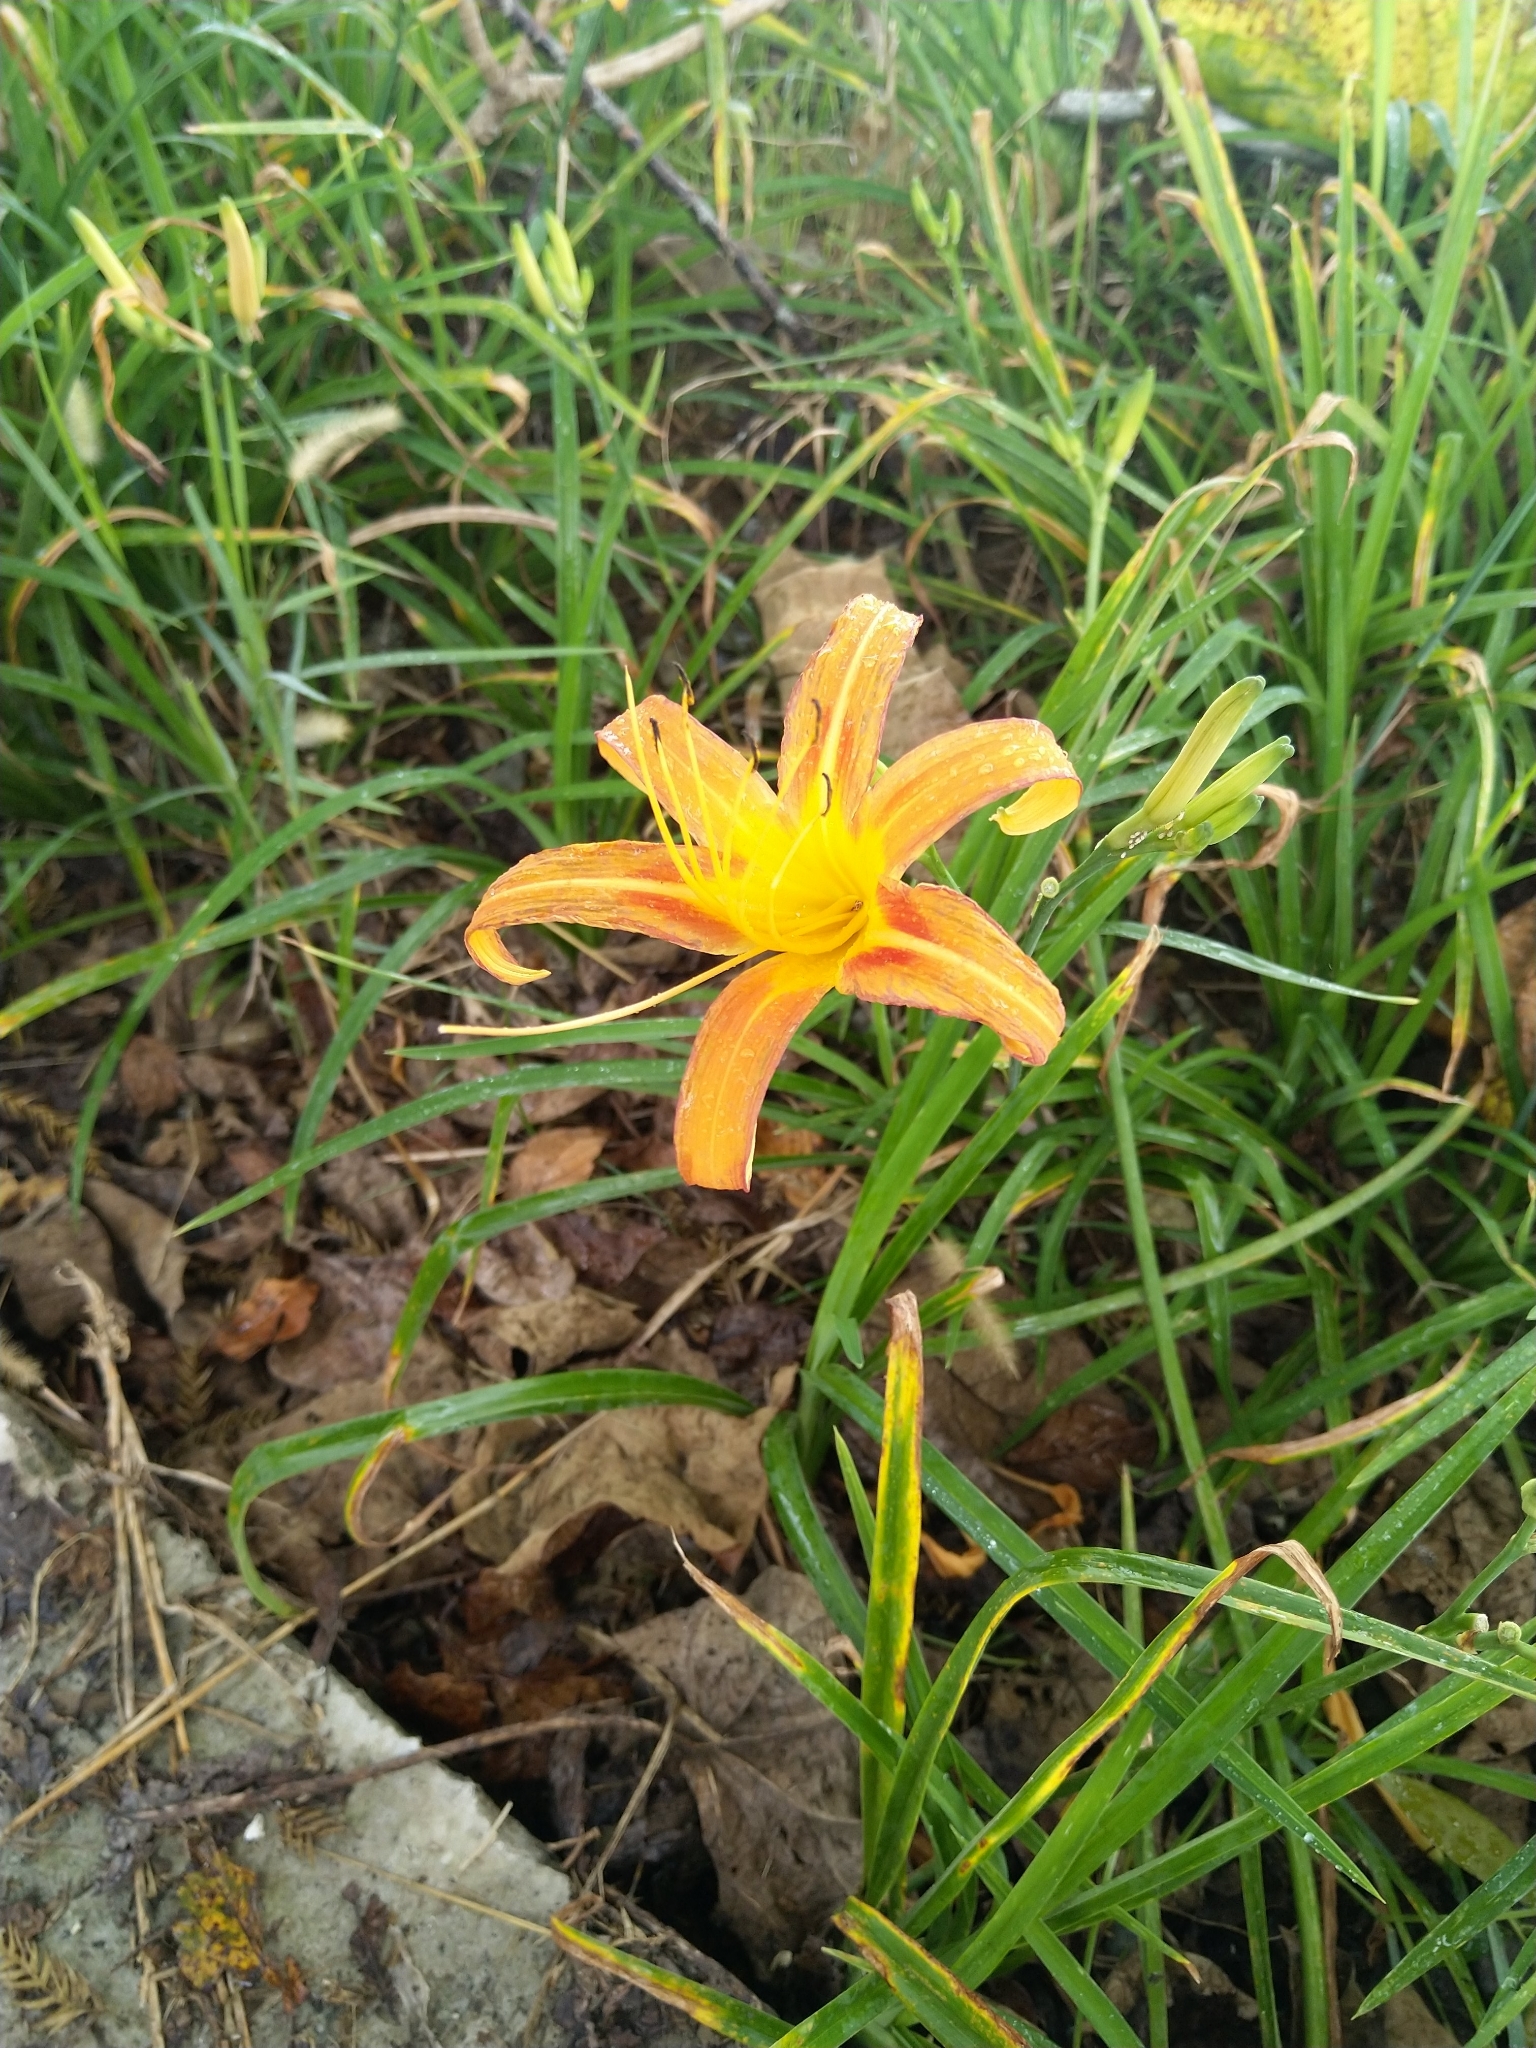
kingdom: Plantae
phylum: Tracheophyta
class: Liliopsida
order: Asparagales
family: Asphodelaceae
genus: Hemerocallis
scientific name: Hemerocallis fulva
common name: Orange day-lily
